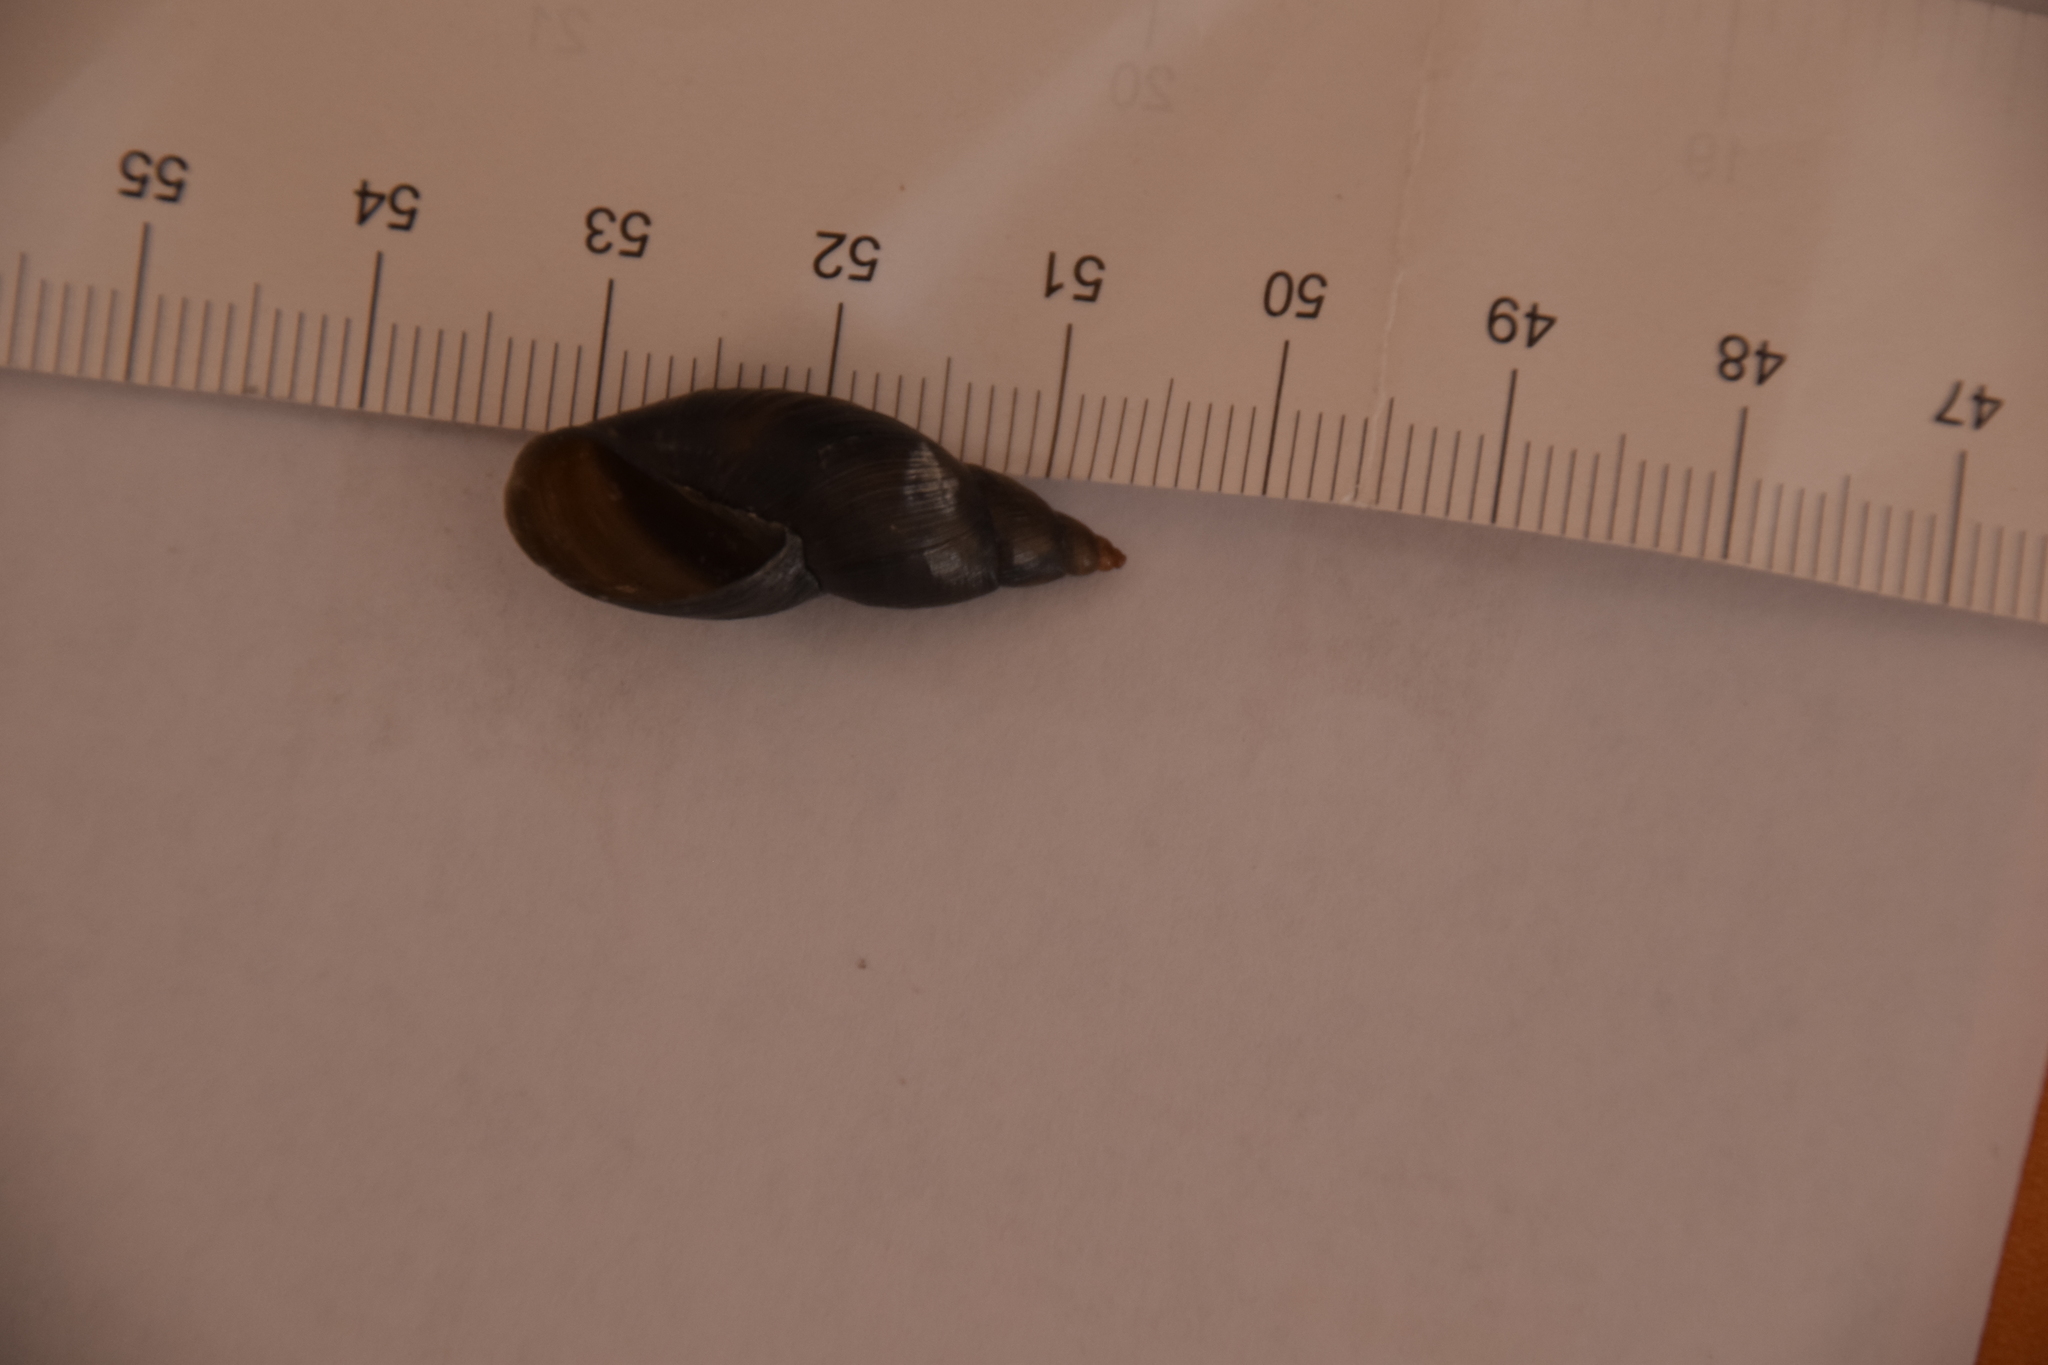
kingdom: Animalia
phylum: Mollusca
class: Gastropoda
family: Lymnaeidae
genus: Stagnicola
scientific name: Stagnicola corvus
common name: Giant pondsnail
